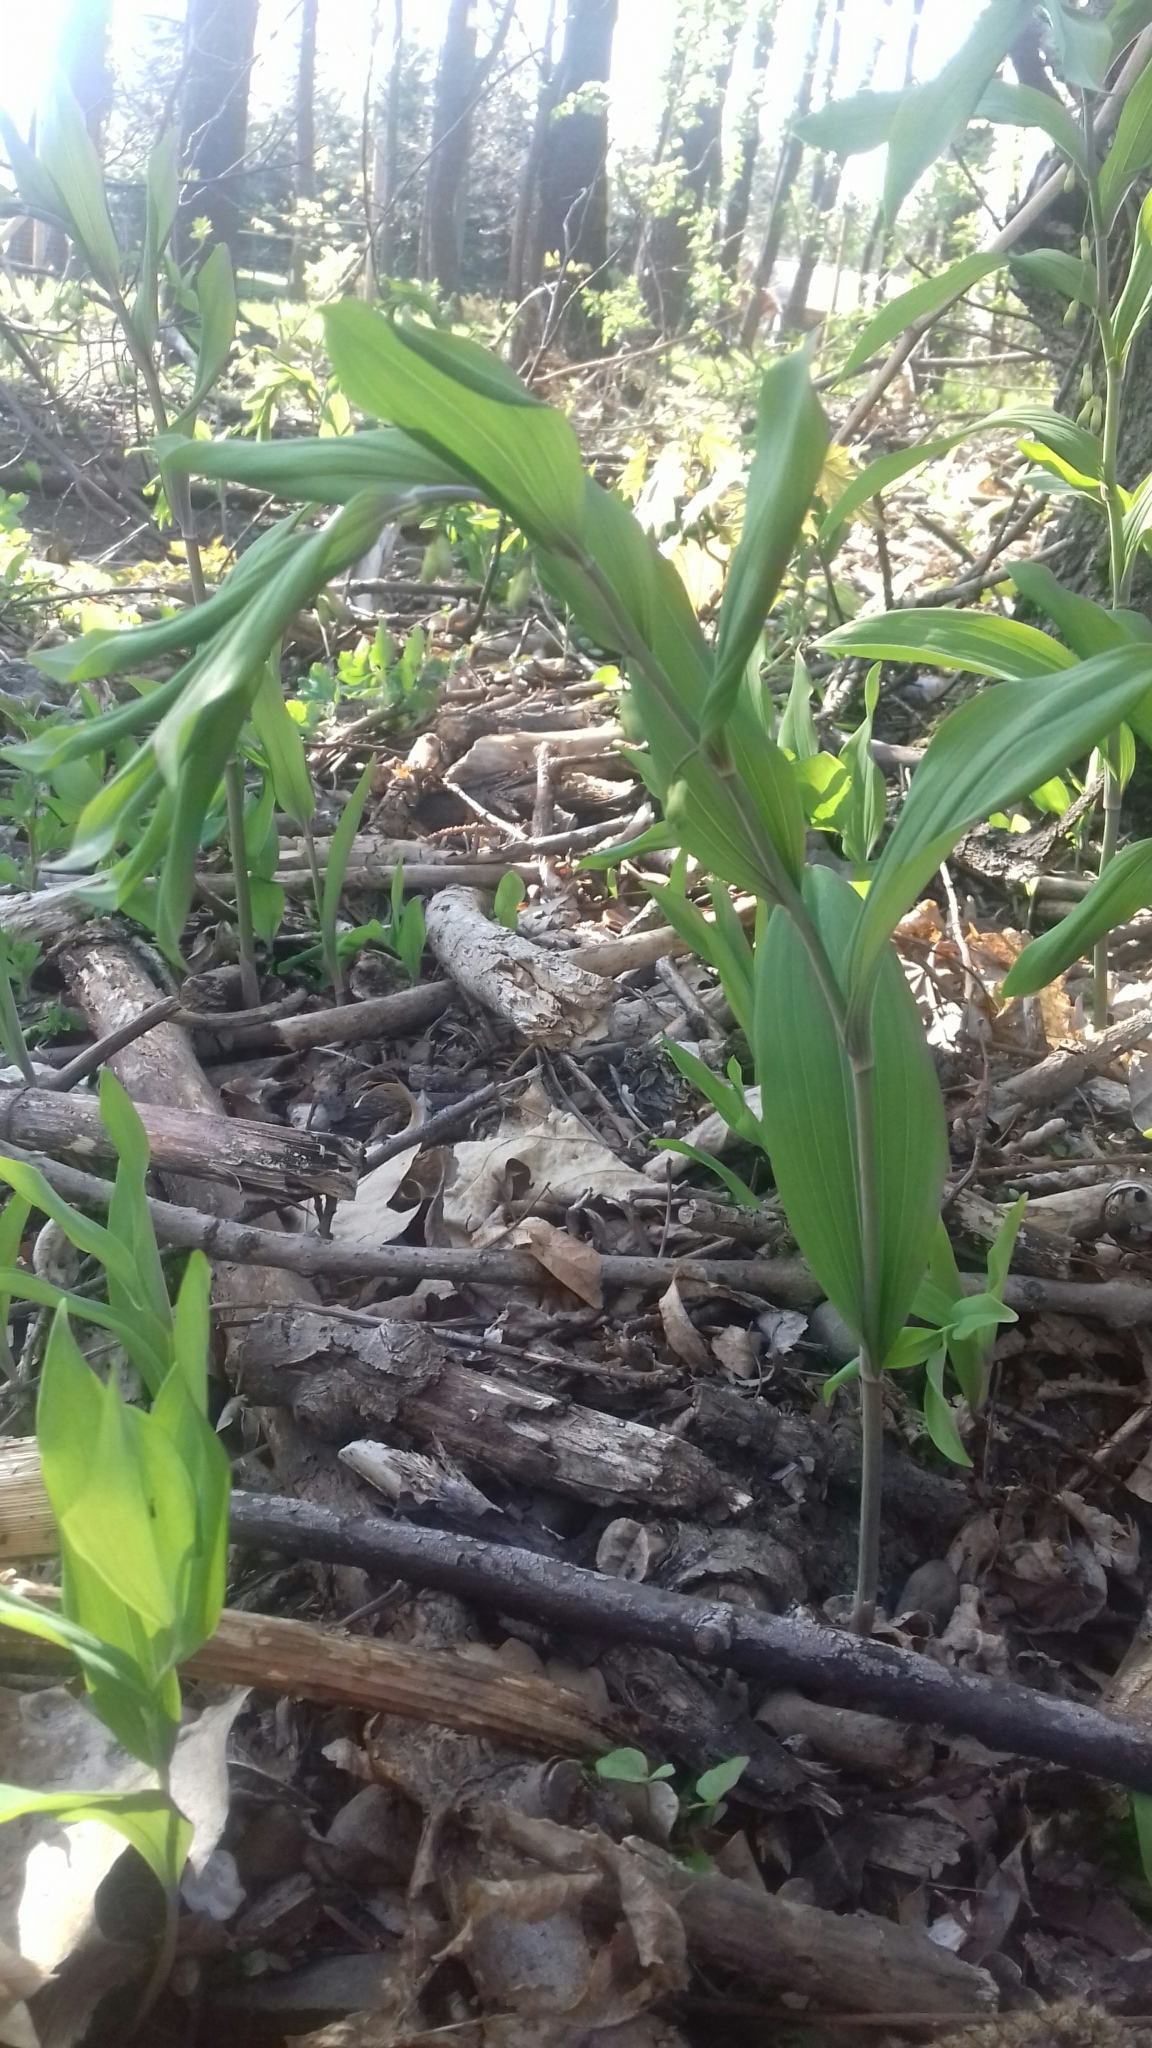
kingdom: Plantae
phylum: Tracheophyta
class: Liliopsida
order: Asparagales
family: Asparagaceae
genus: Polygonatum
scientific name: Polygonatum multiflorum
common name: Solomon's-seal
